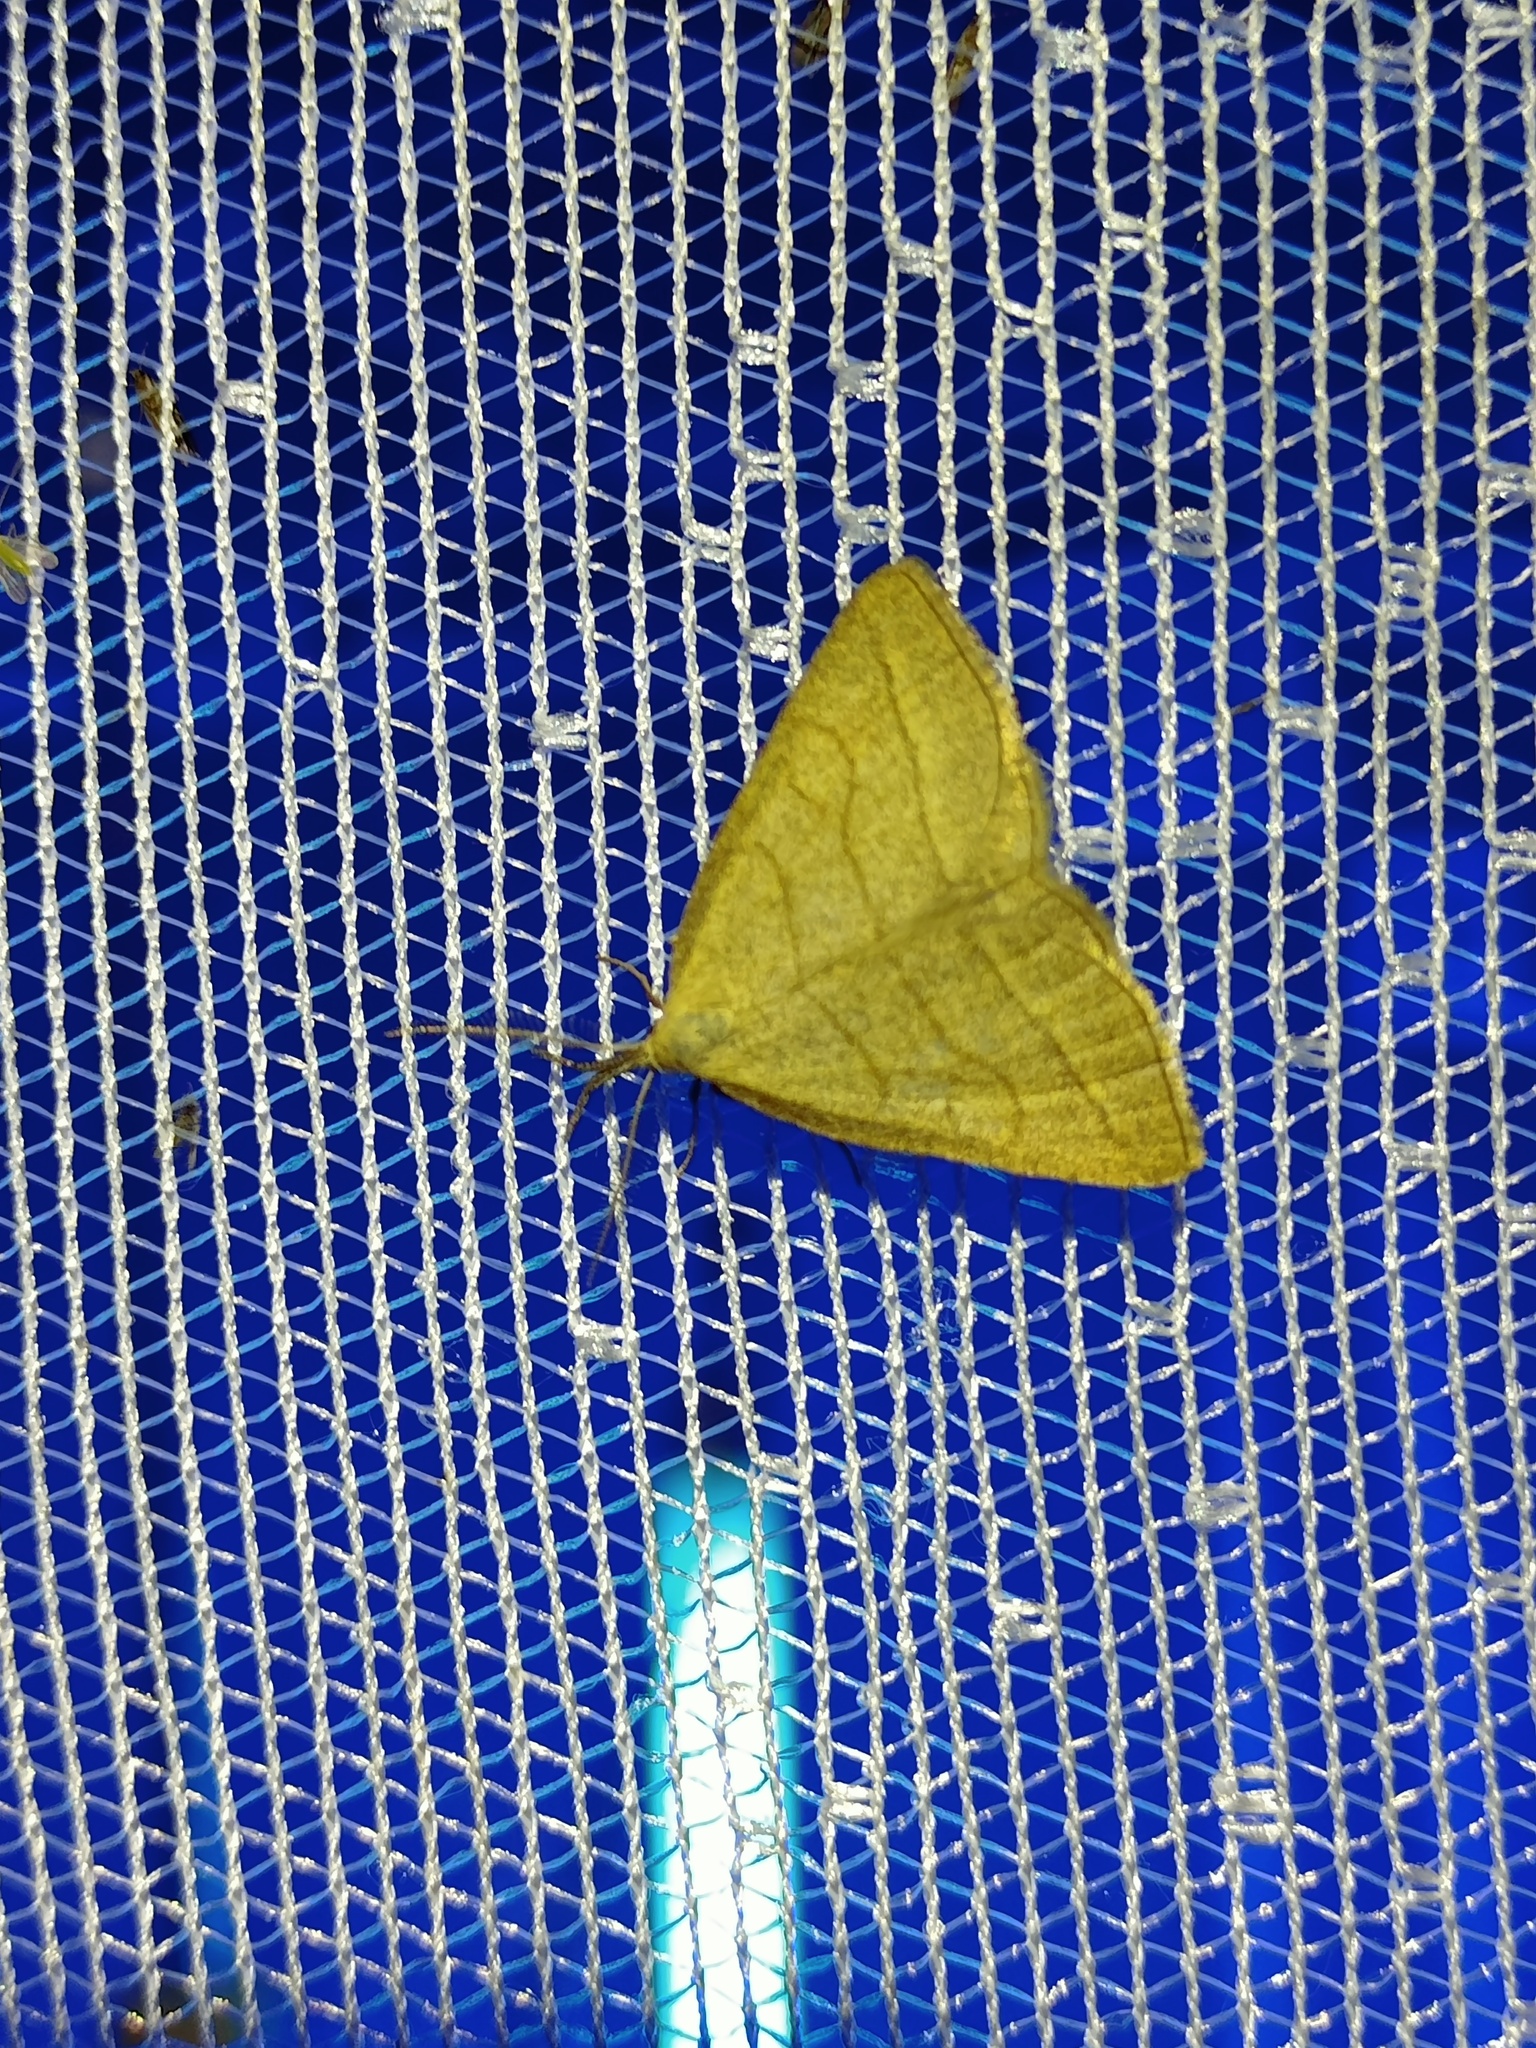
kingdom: Animalia
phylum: Arthropoda
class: Insecta
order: Lepidoptera
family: Erebidae
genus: Polypogon
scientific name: Polypogon tentacularia
